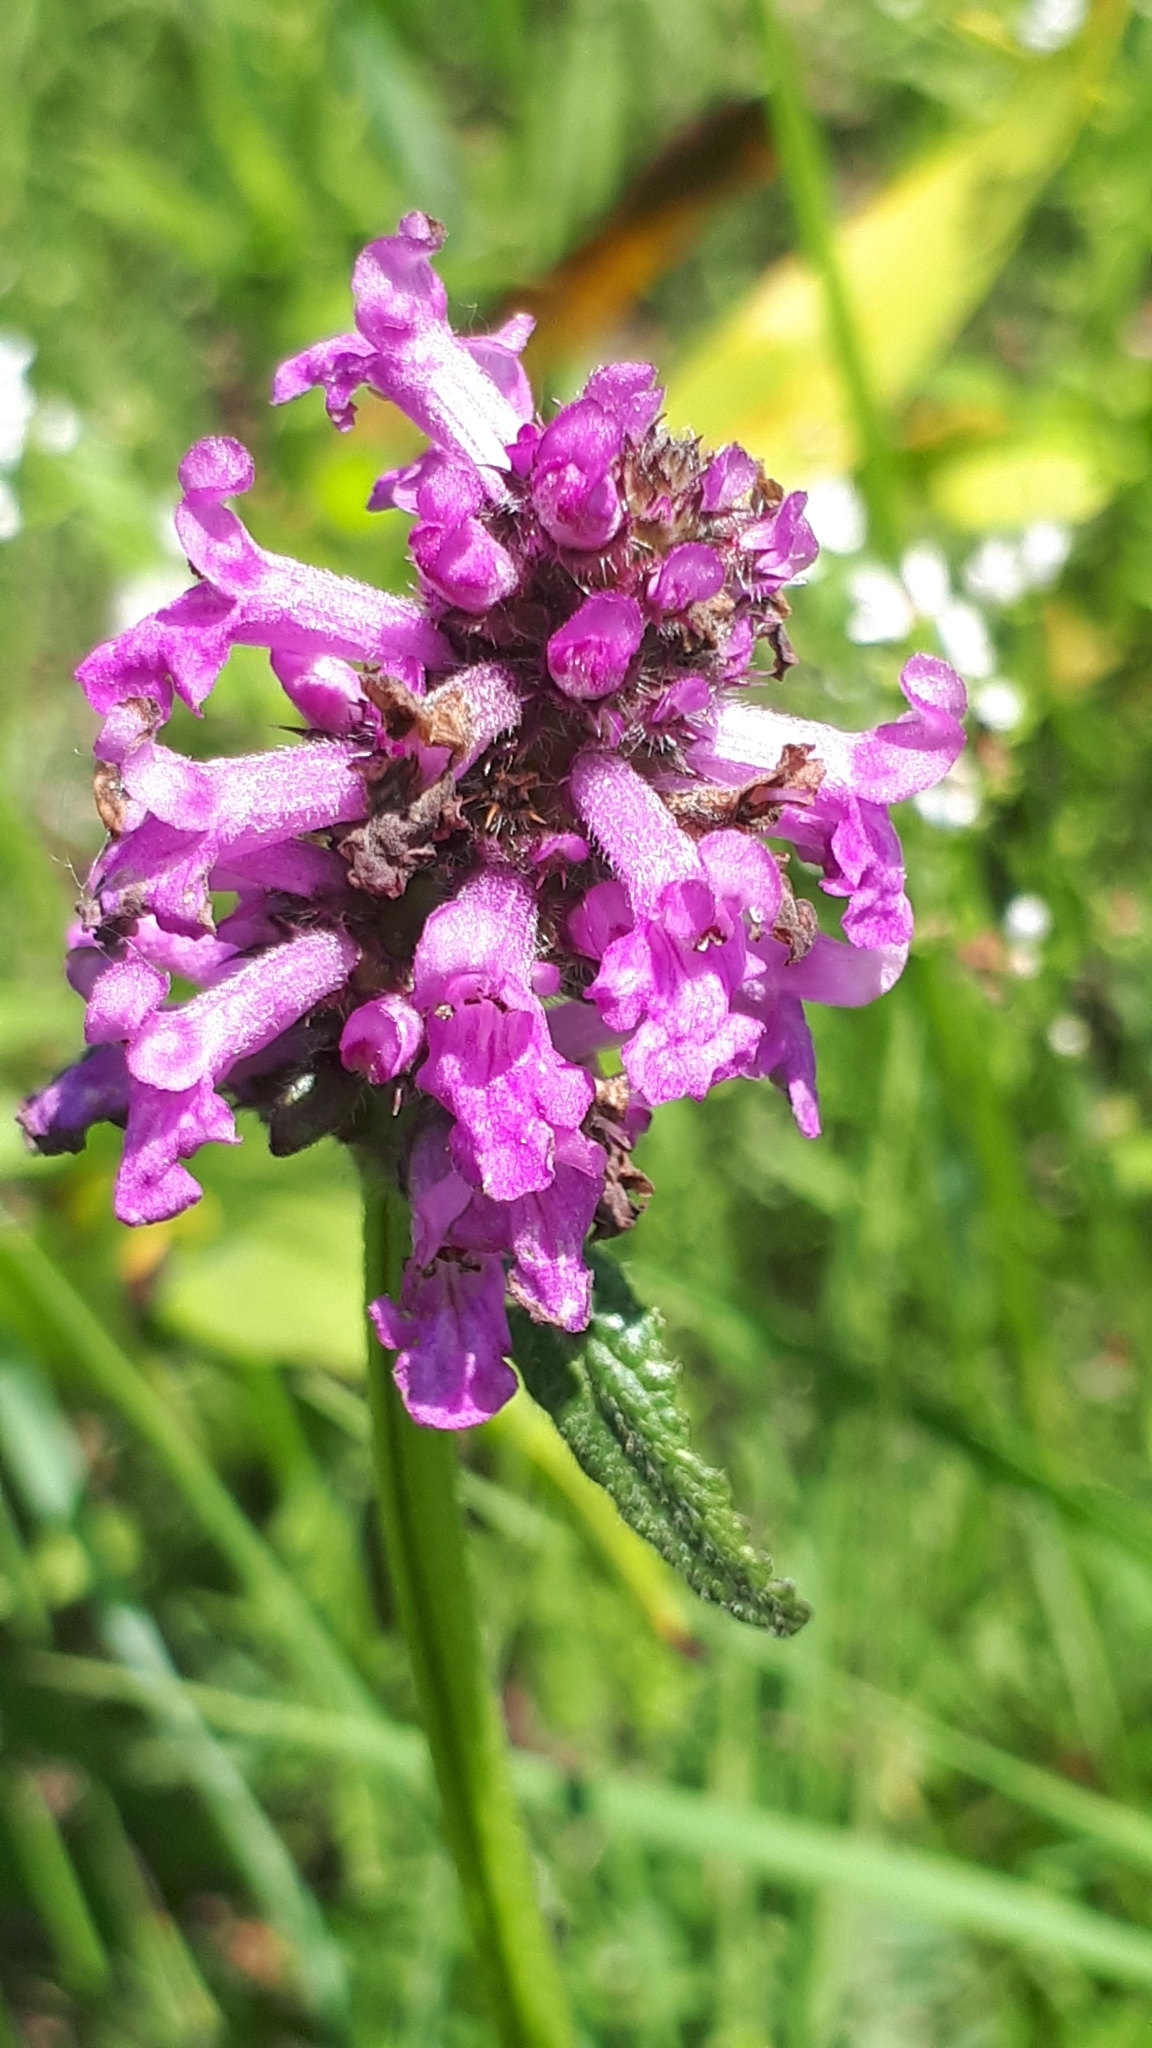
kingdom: Plantae
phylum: Tracheophyta
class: Magnoliopsida
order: Lamiales
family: Lamiaceae
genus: Betonica
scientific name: Betonica officinalis
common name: Bishop's-wort
